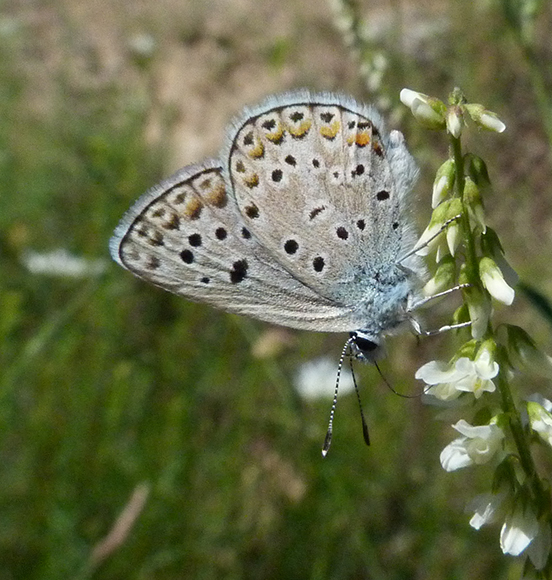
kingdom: Animalia
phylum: Arthropoda
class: Insecta
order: Lepidoptera
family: Lycaenidae
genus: Plebicula
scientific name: Plebicula escheri
